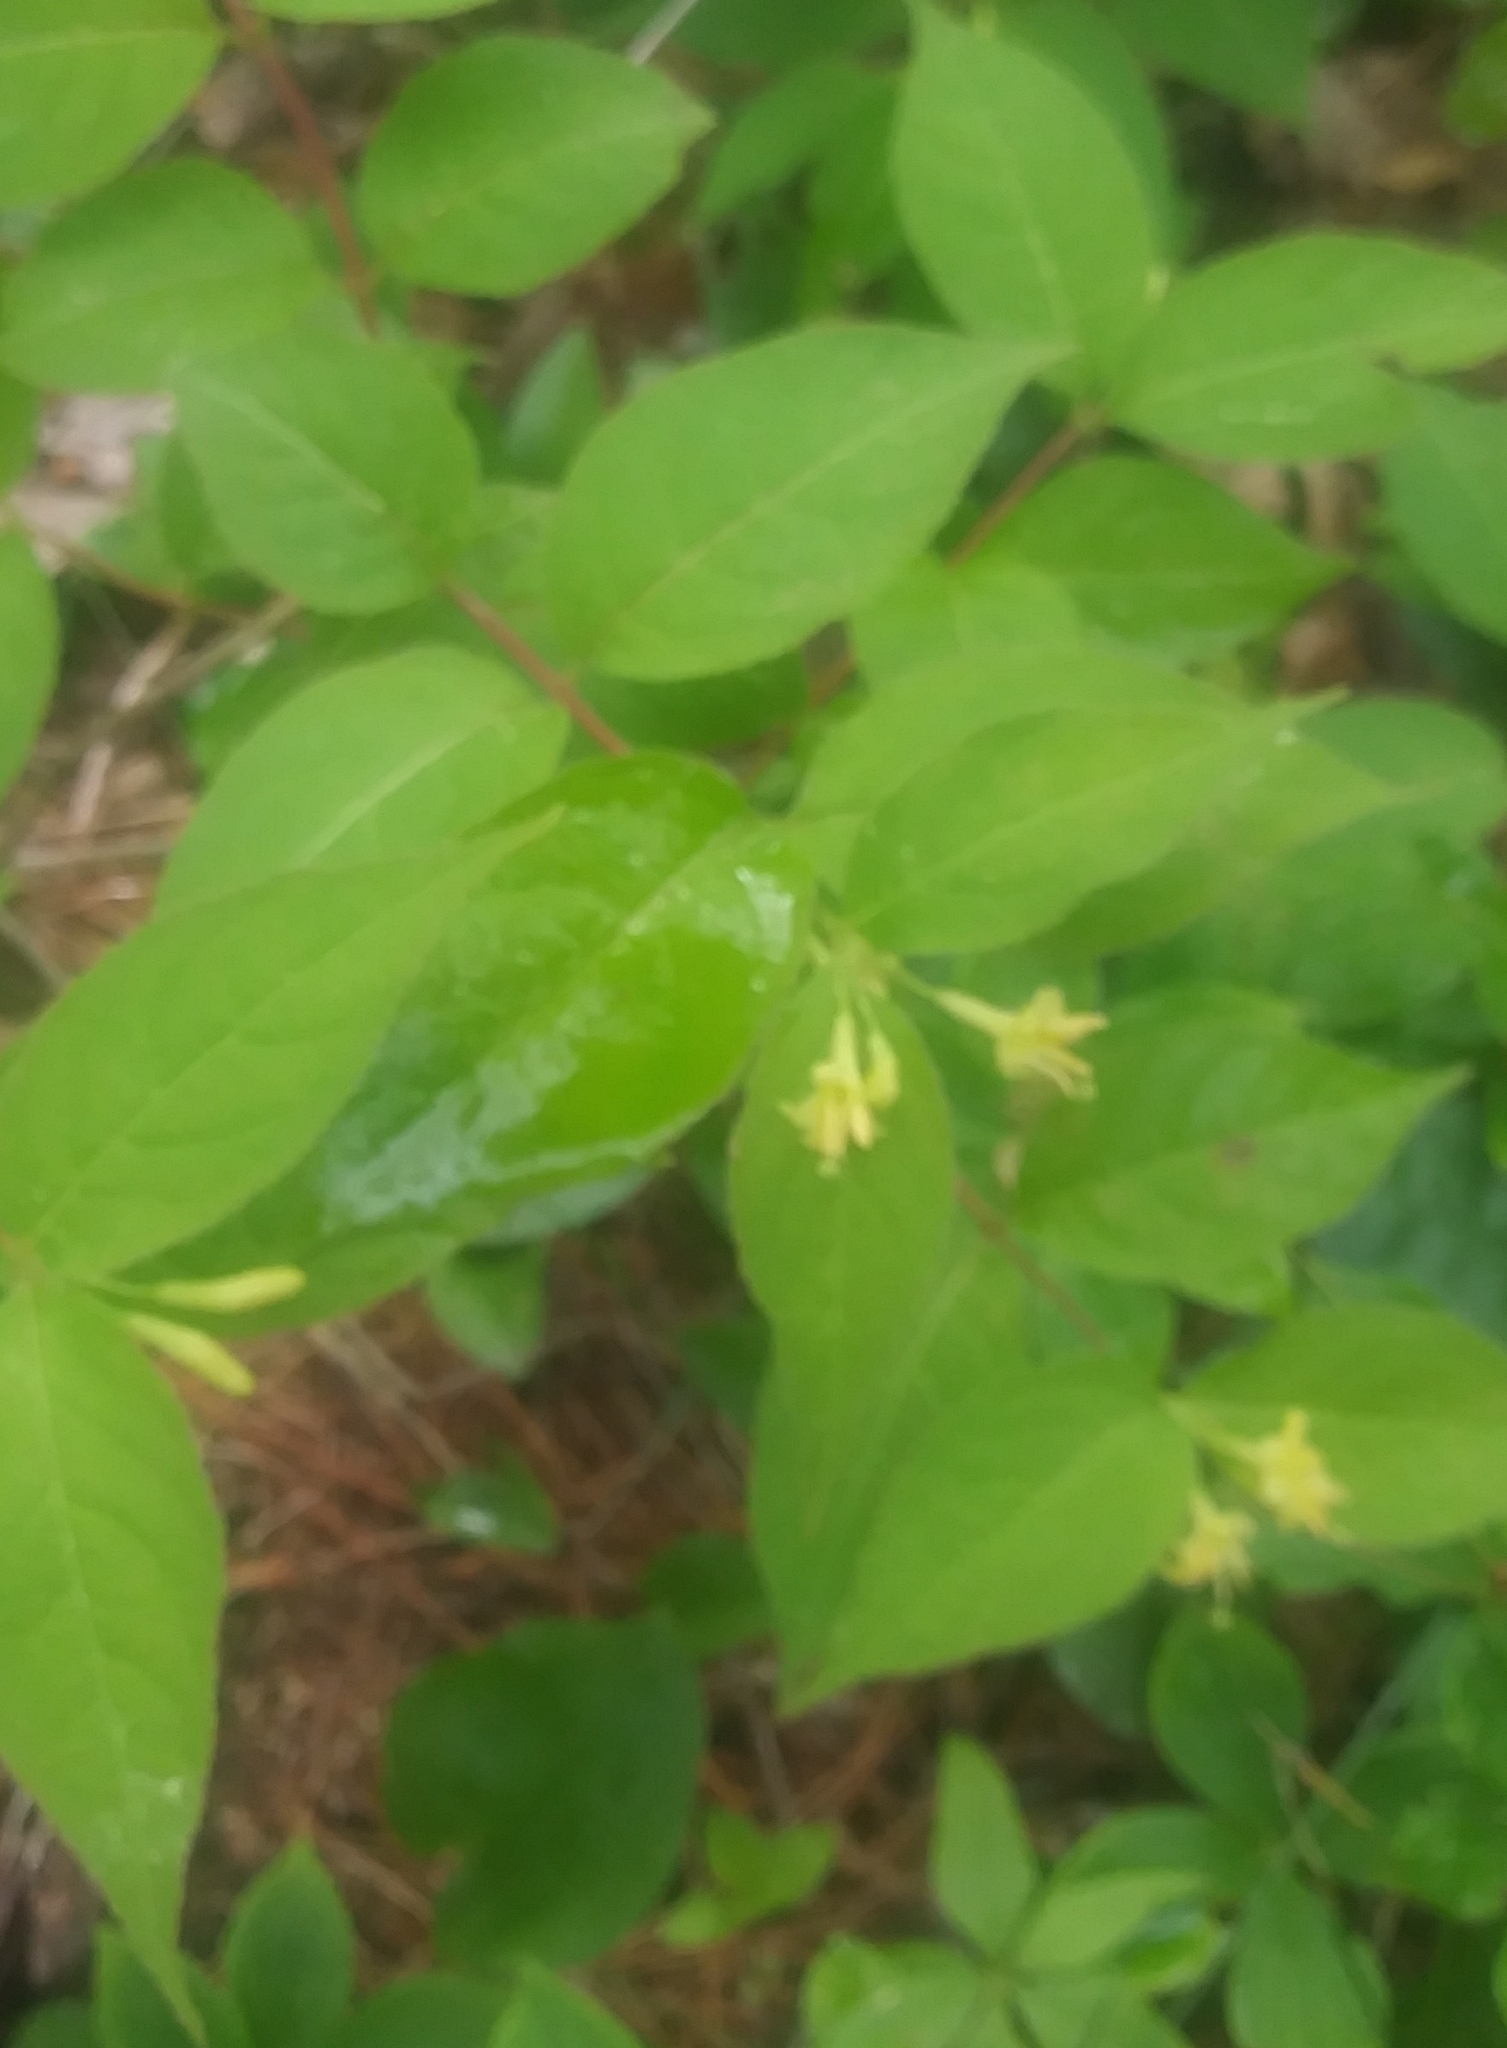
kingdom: Plantae
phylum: Tracheophyta
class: Magnoliopsida
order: Dipsacales
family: Caprifoliaceae
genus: Diervilla
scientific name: Diervilla lonicera
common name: Bush-honeysuckle
